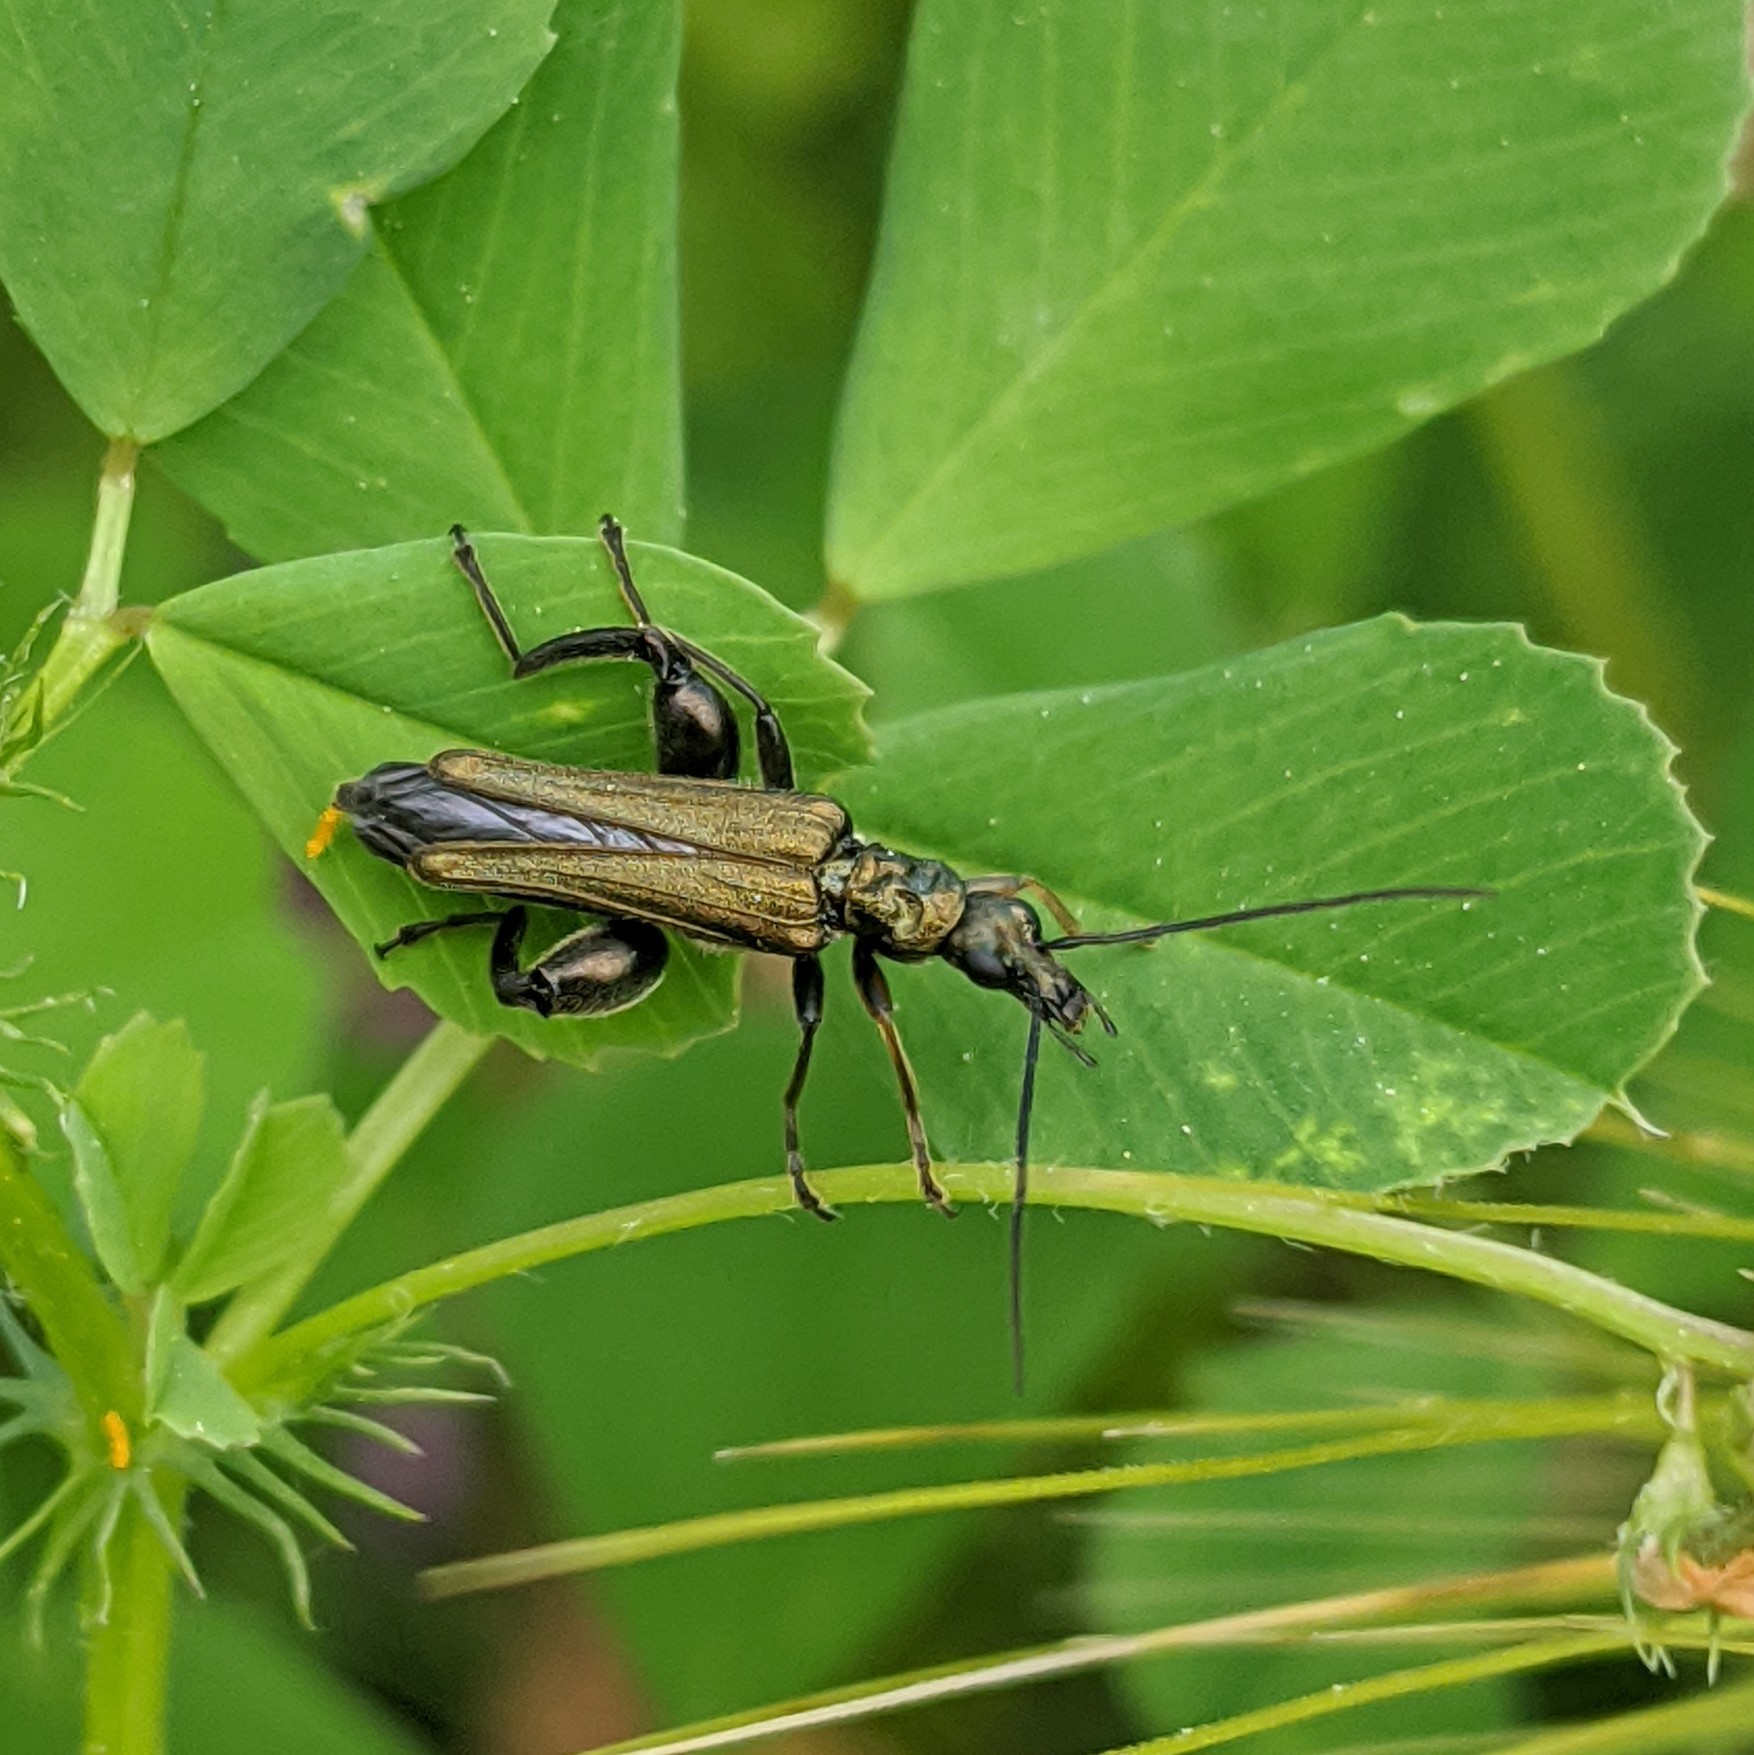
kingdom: Animalia
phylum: Arthropoda
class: Insecta
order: Coleoptera
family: Oedemeridae
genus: Oedemera
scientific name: Oedemera flavipes
